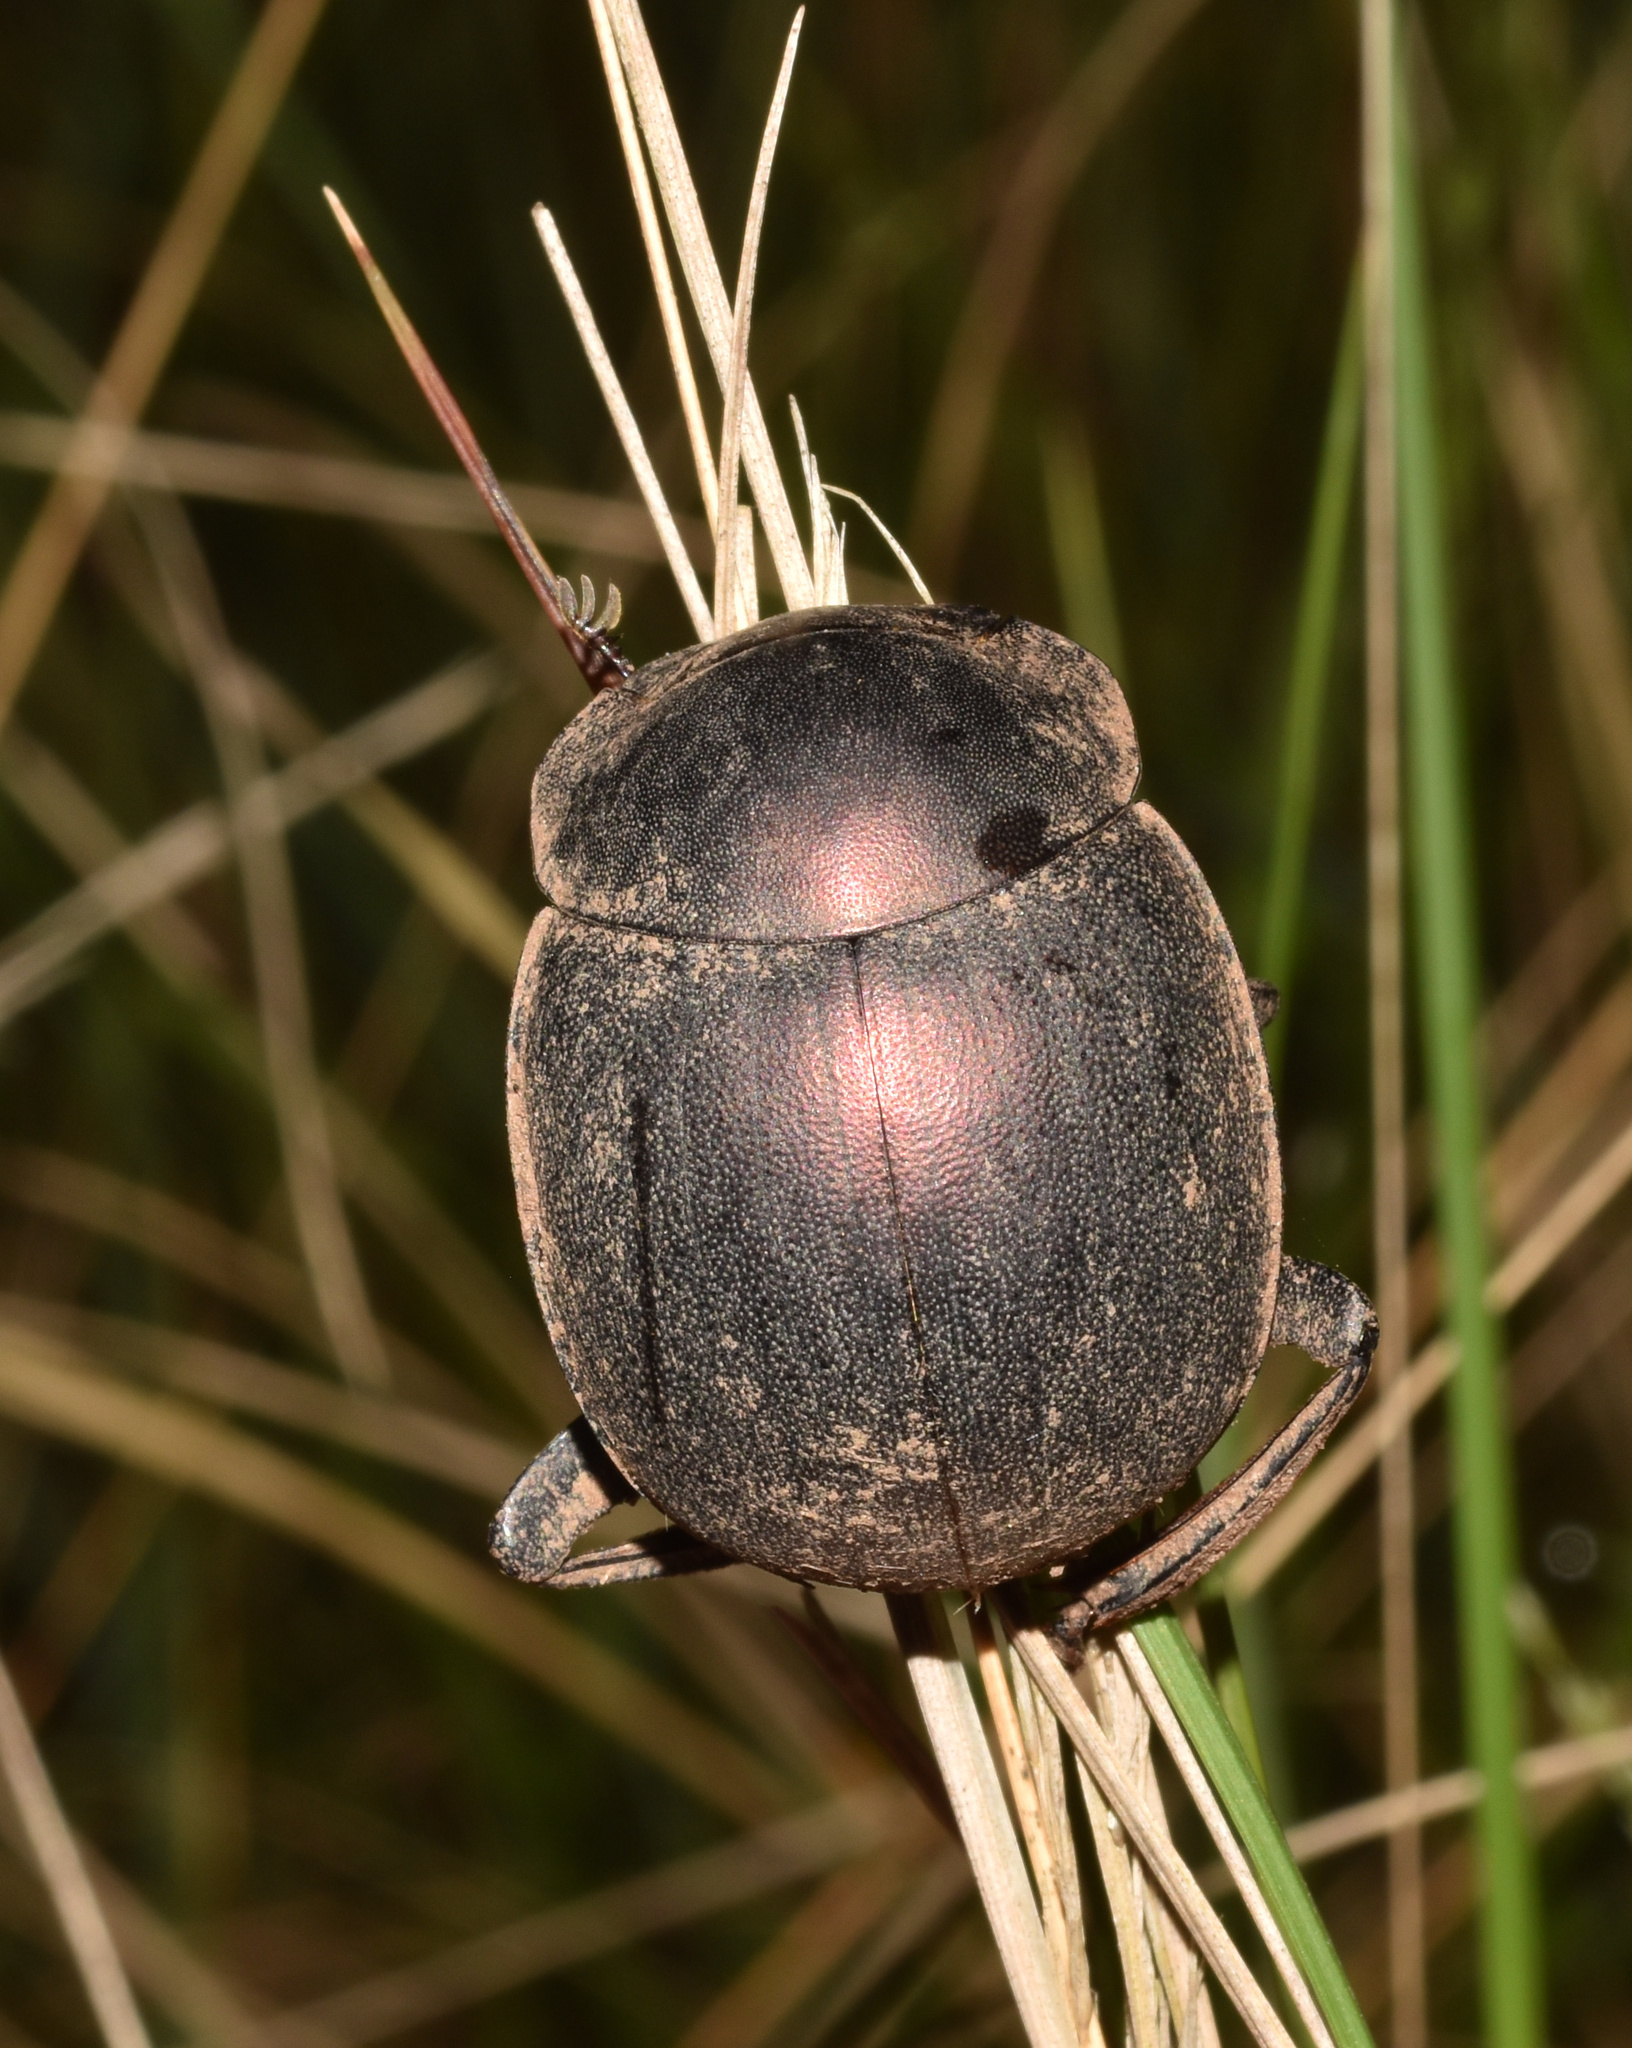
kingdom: Animalia
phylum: Arthropoda
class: Insecta
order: Coleoptera
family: Scarabaeidae
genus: Chalconotus
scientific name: Chalconotus convexus
